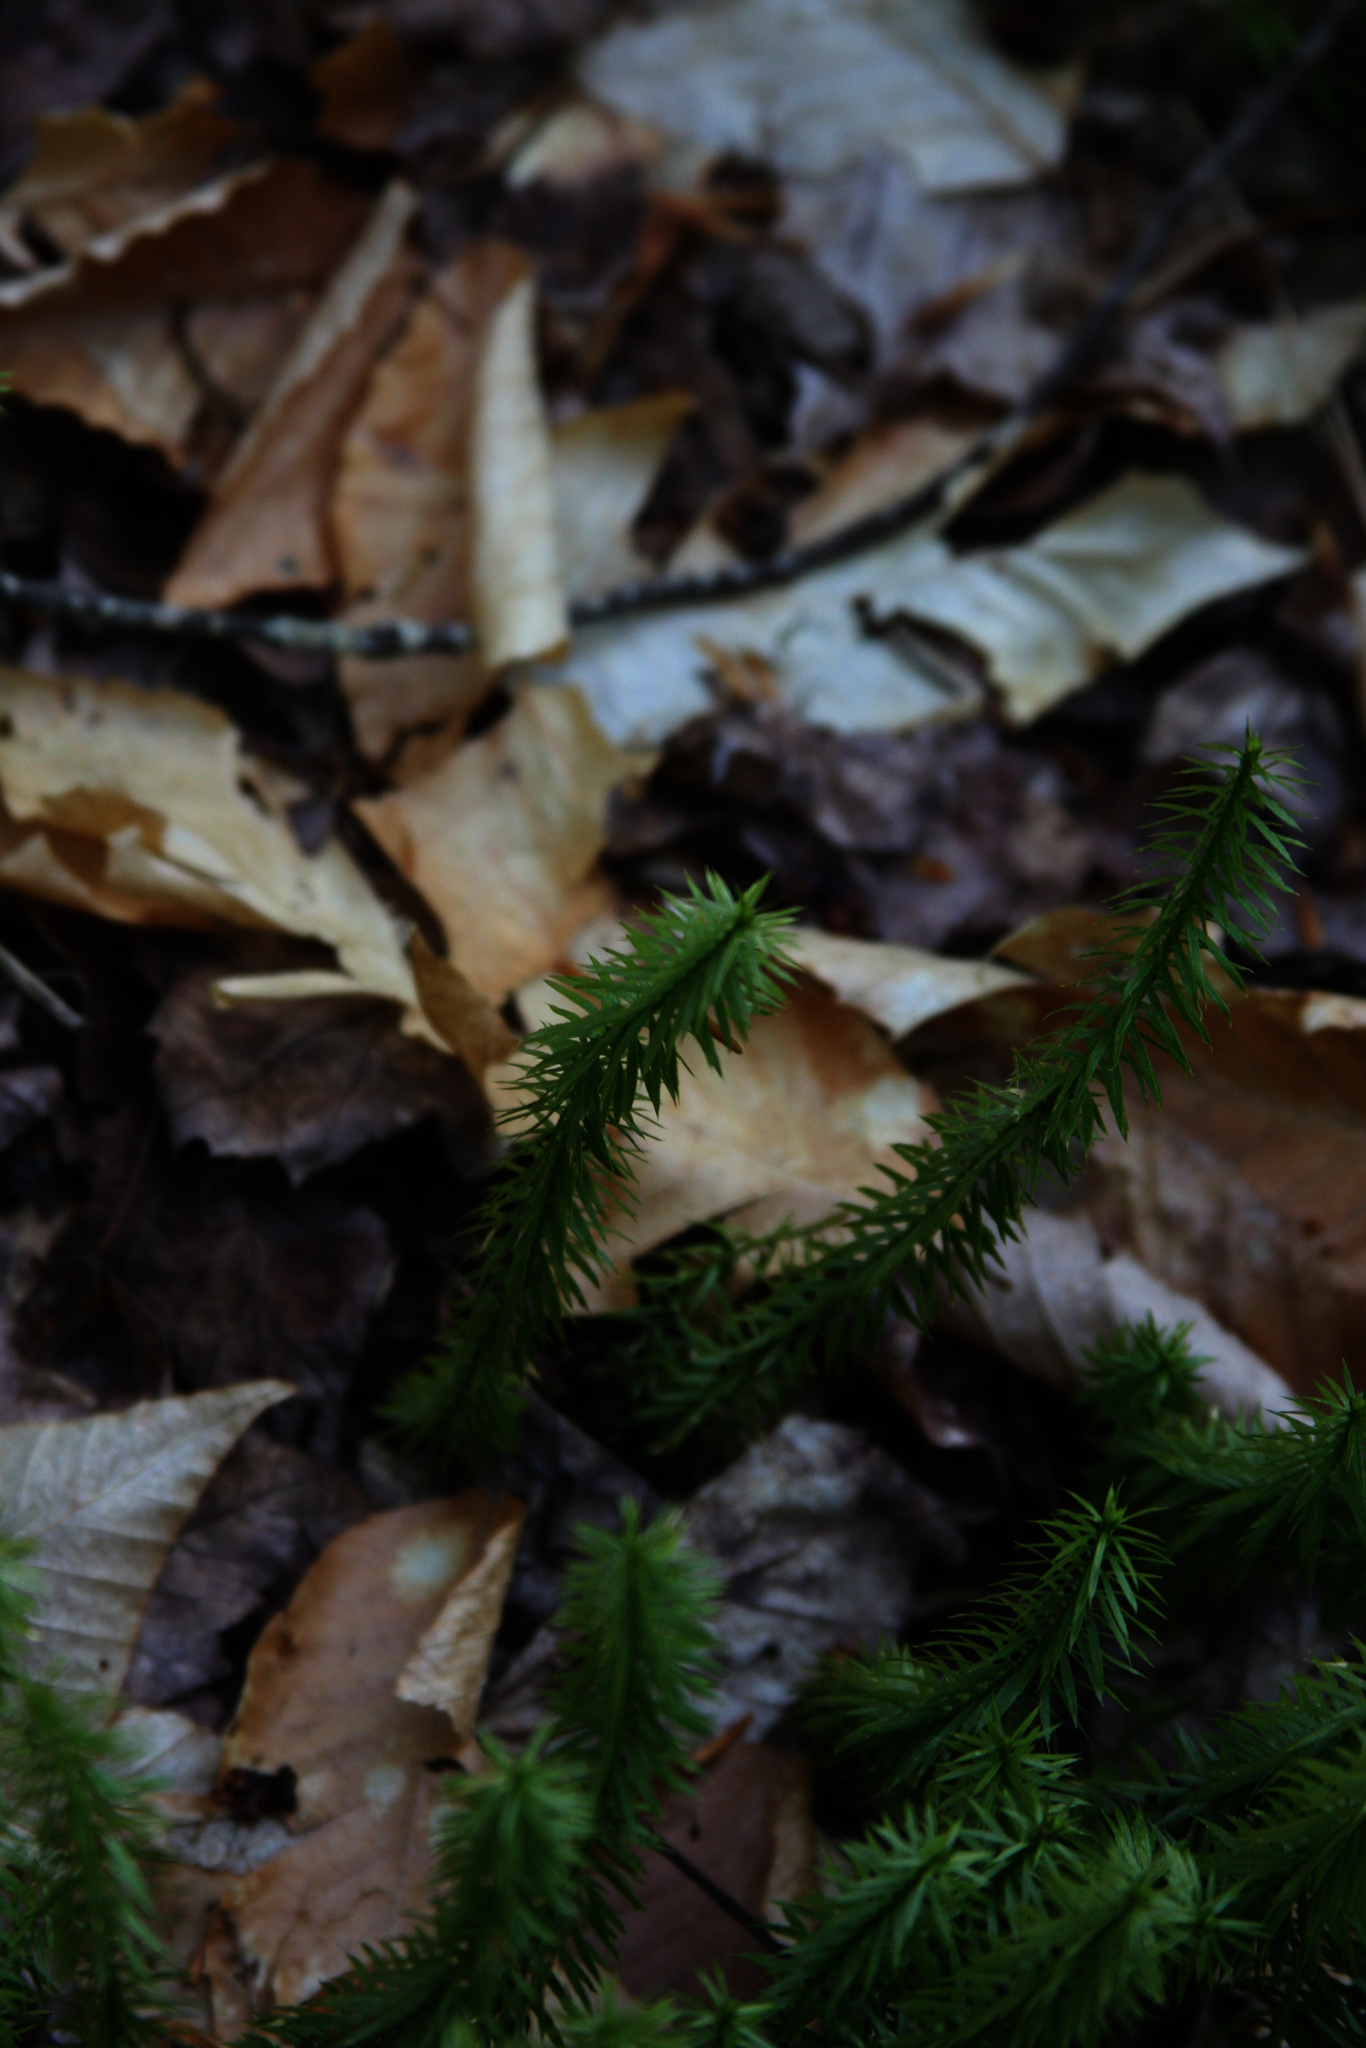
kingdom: Plantae
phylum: Tracheophyta
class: Lycopodiopsida
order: Lycopodiales
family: Lycopodiaceae
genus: Spinulum
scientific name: Spinulum annotinum
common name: Interrupted club-moss
